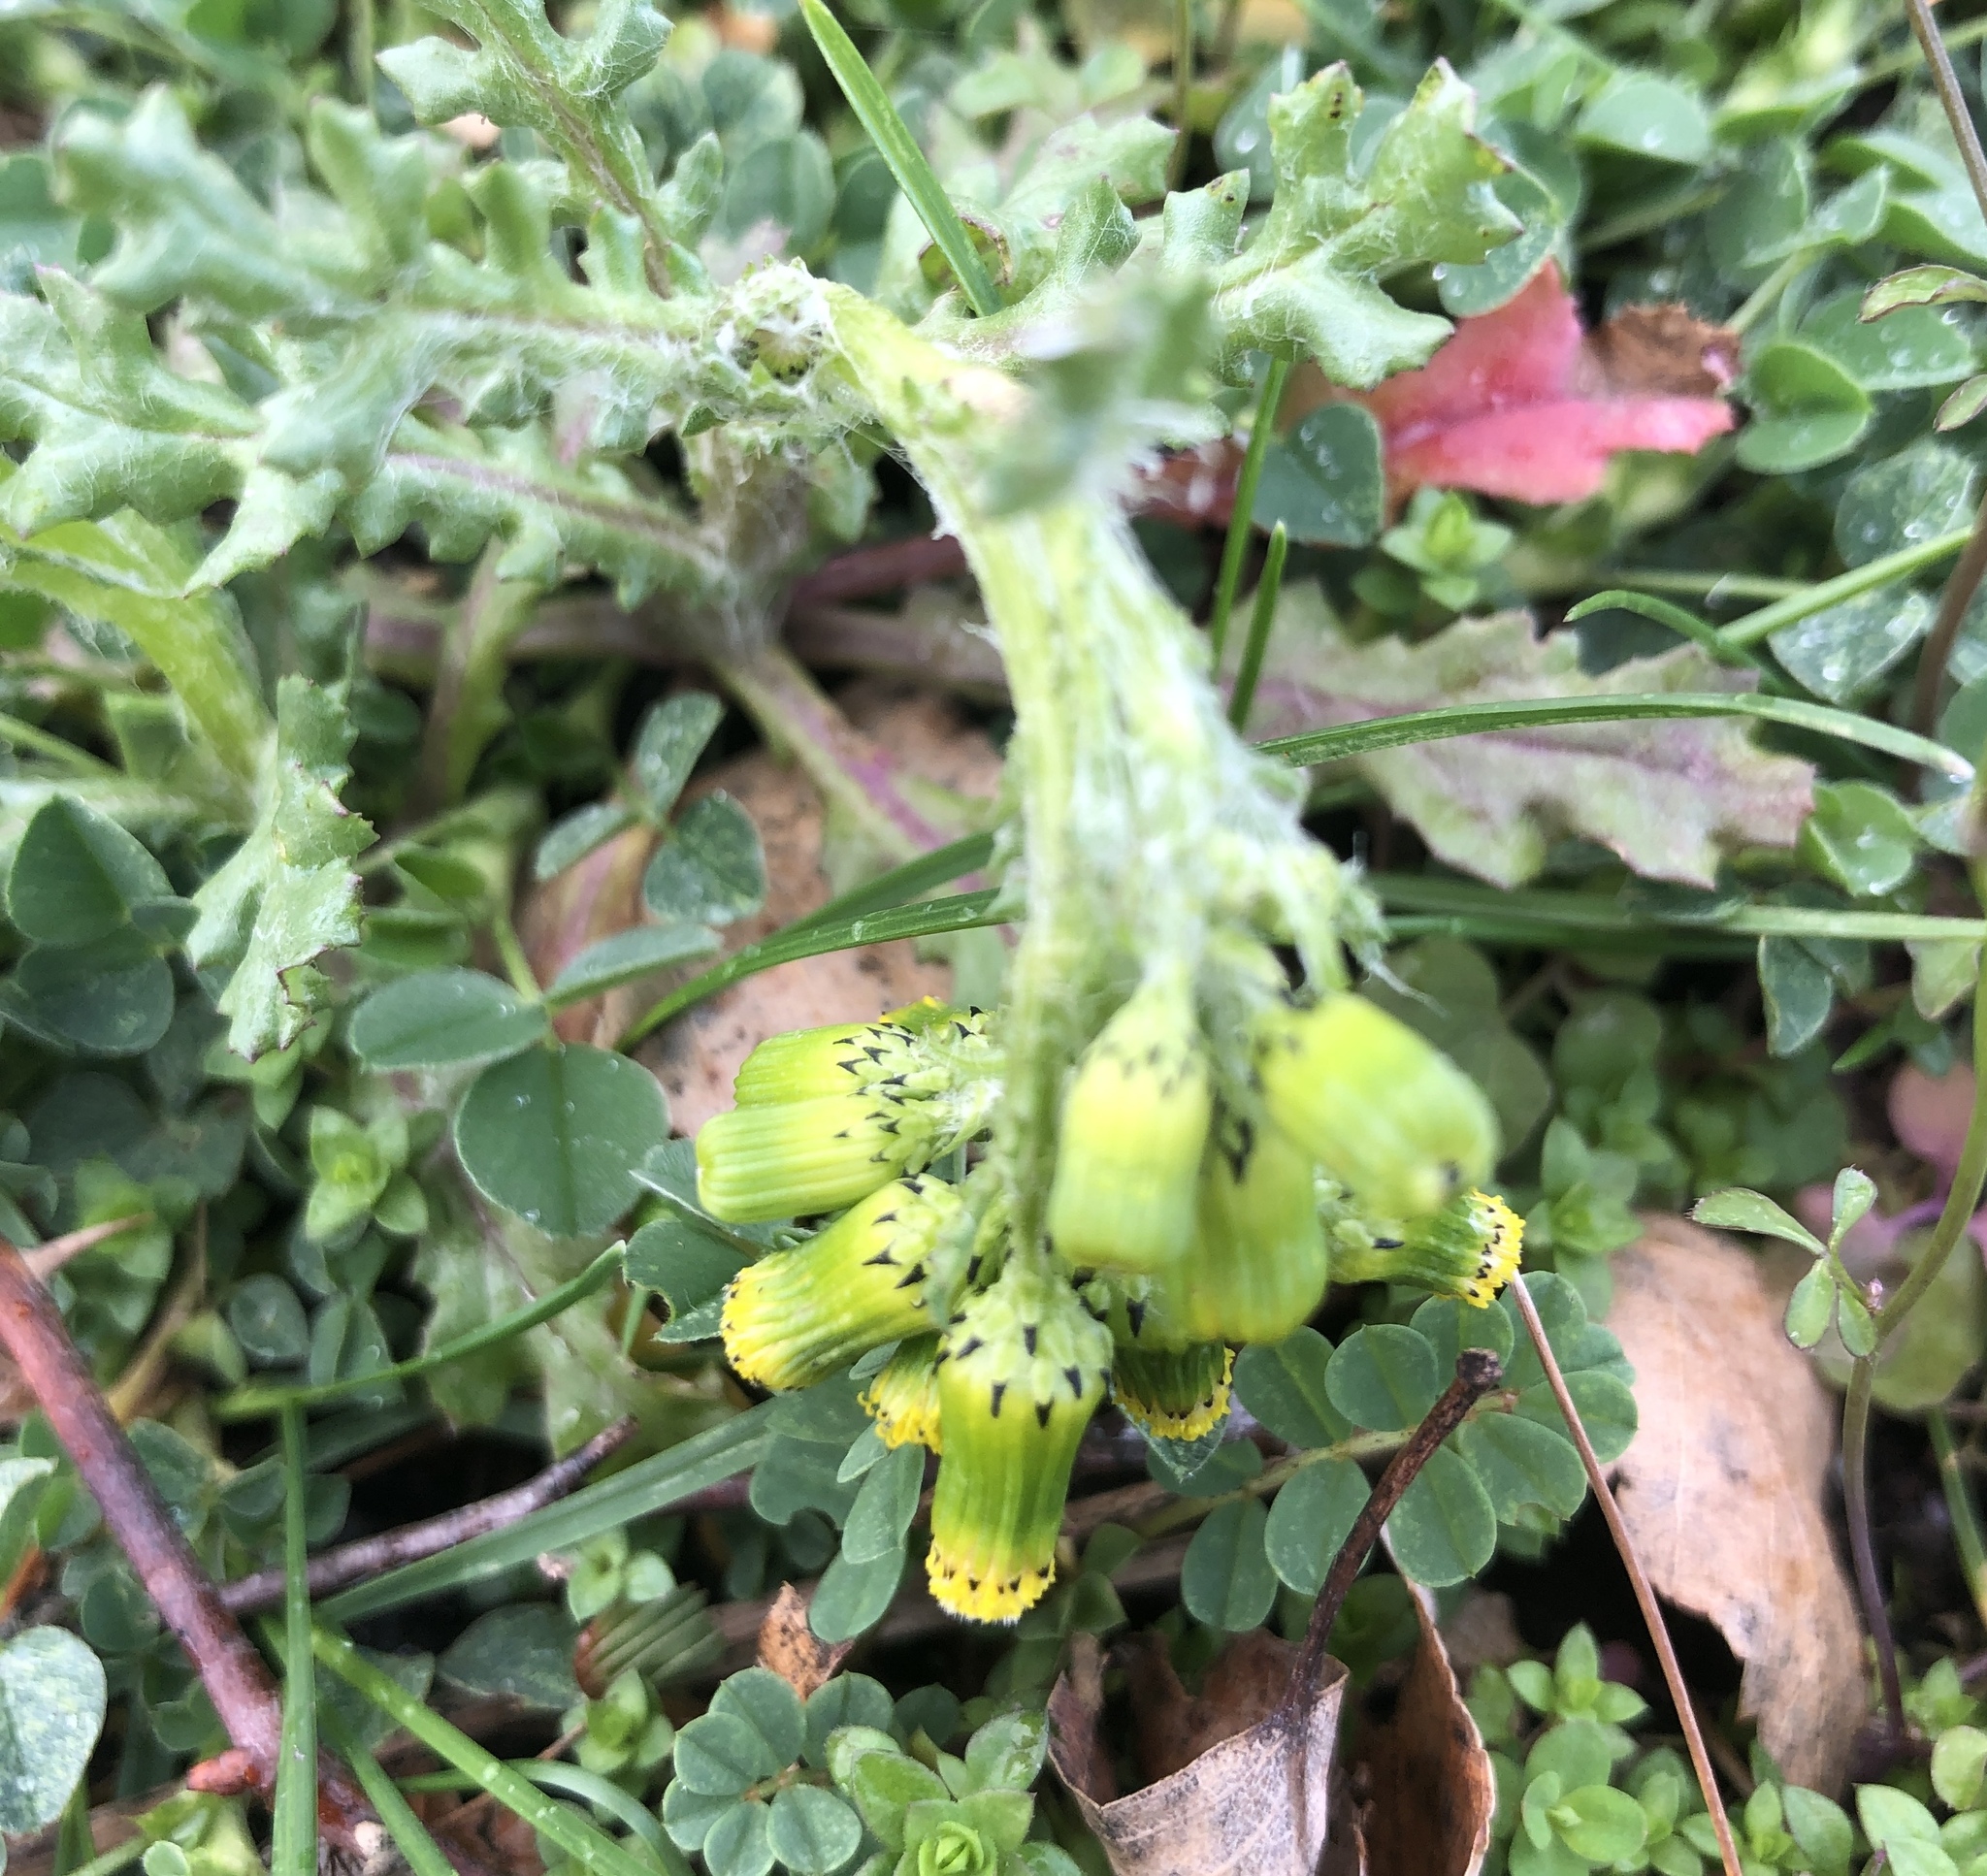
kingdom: Plantae
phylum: Tracheophyta
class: Magnoliopsida
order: Asterales
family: Asteraceae
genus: Senecio
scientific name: Senecio vulgaris
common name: Old-man-in-the-spring
